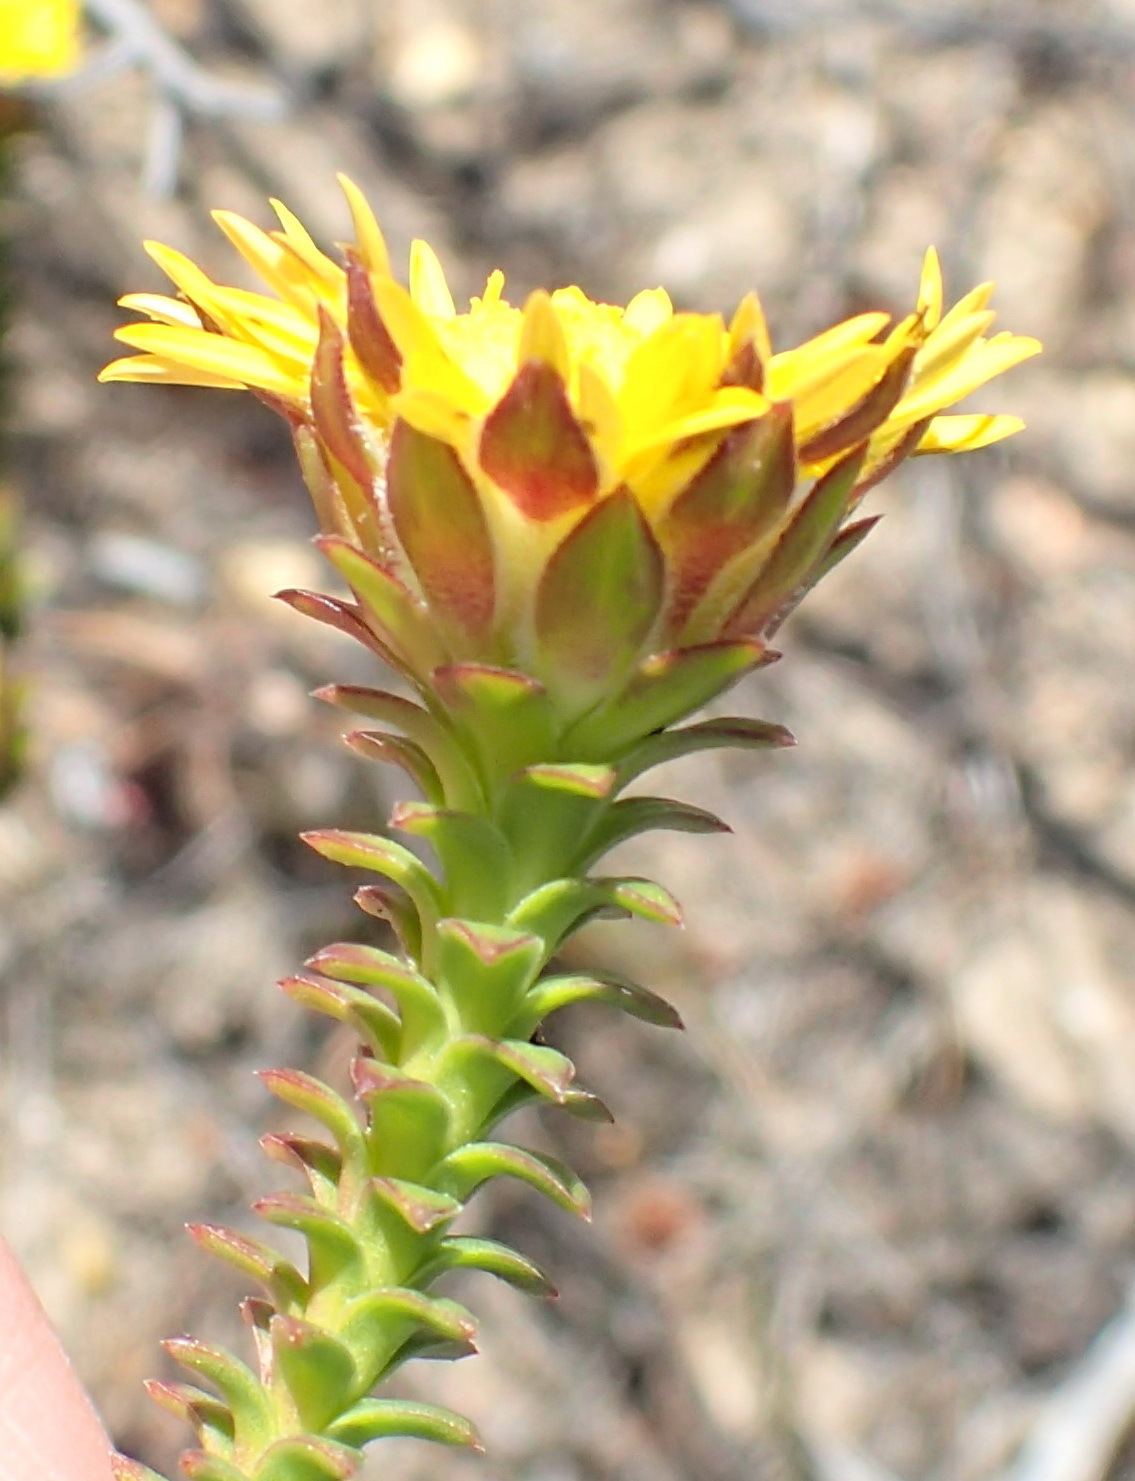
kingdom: Plantae
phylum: Tracheophyta
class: Magnoliopsida
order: Asterales
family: Asteraceae
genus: Oedera
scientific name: Oedera imbricata
